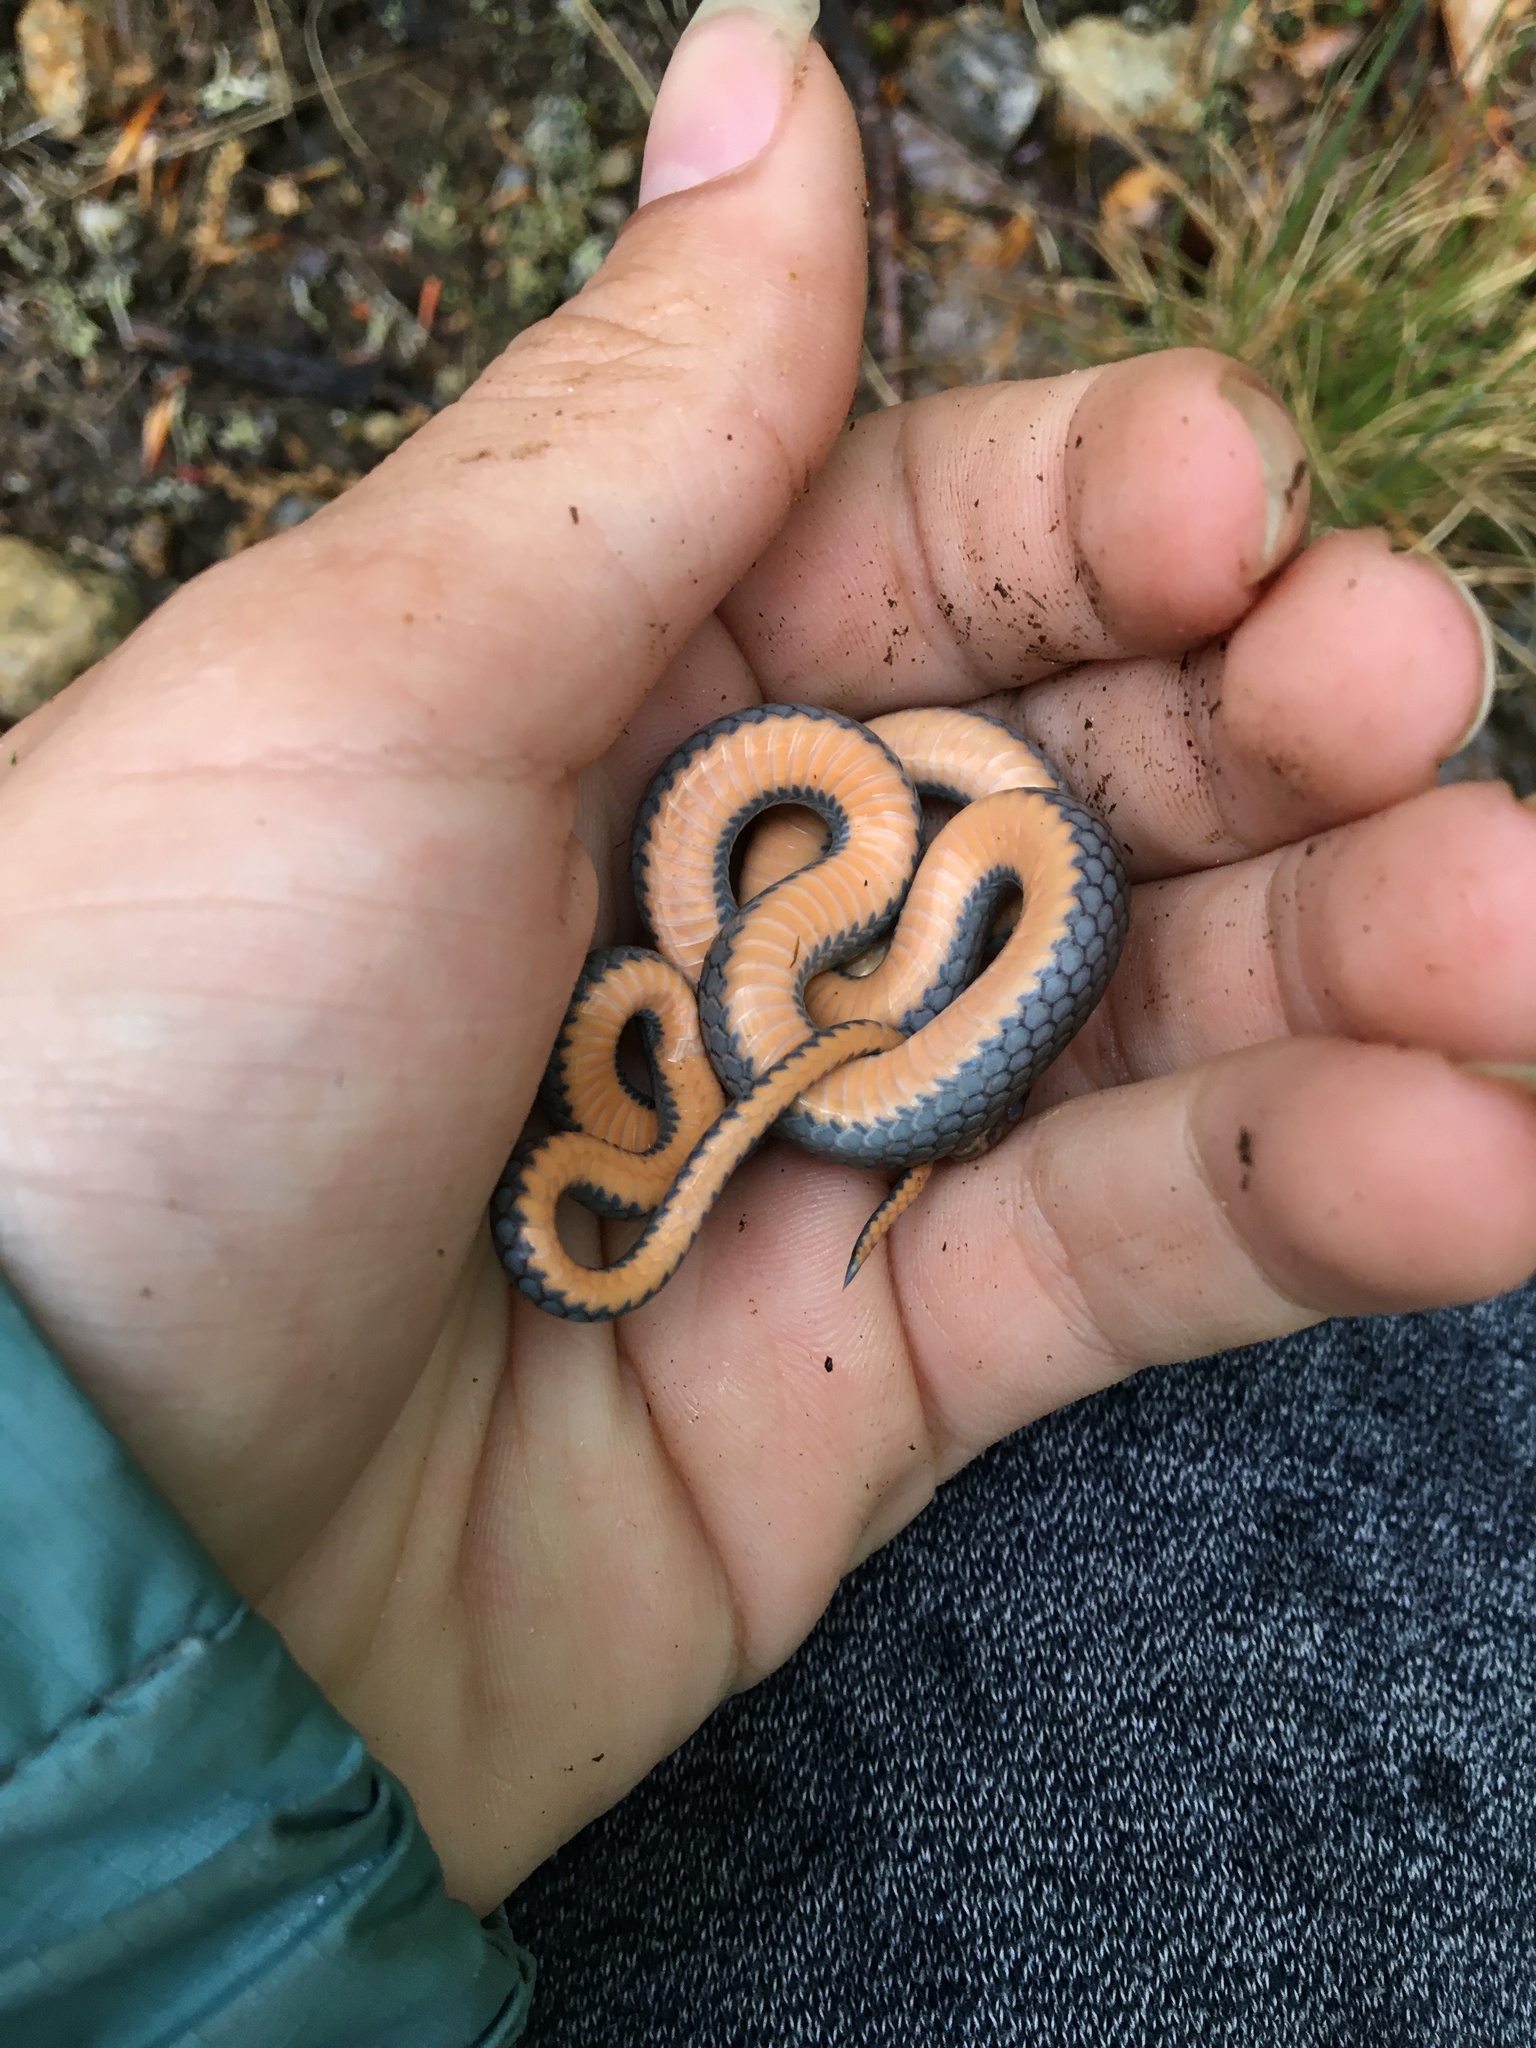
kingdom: Animalia
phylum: Chordata
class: Squamata
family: Colubridae
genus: Diadophis
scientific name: Diadophis punctatus
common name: Ringneck snake
